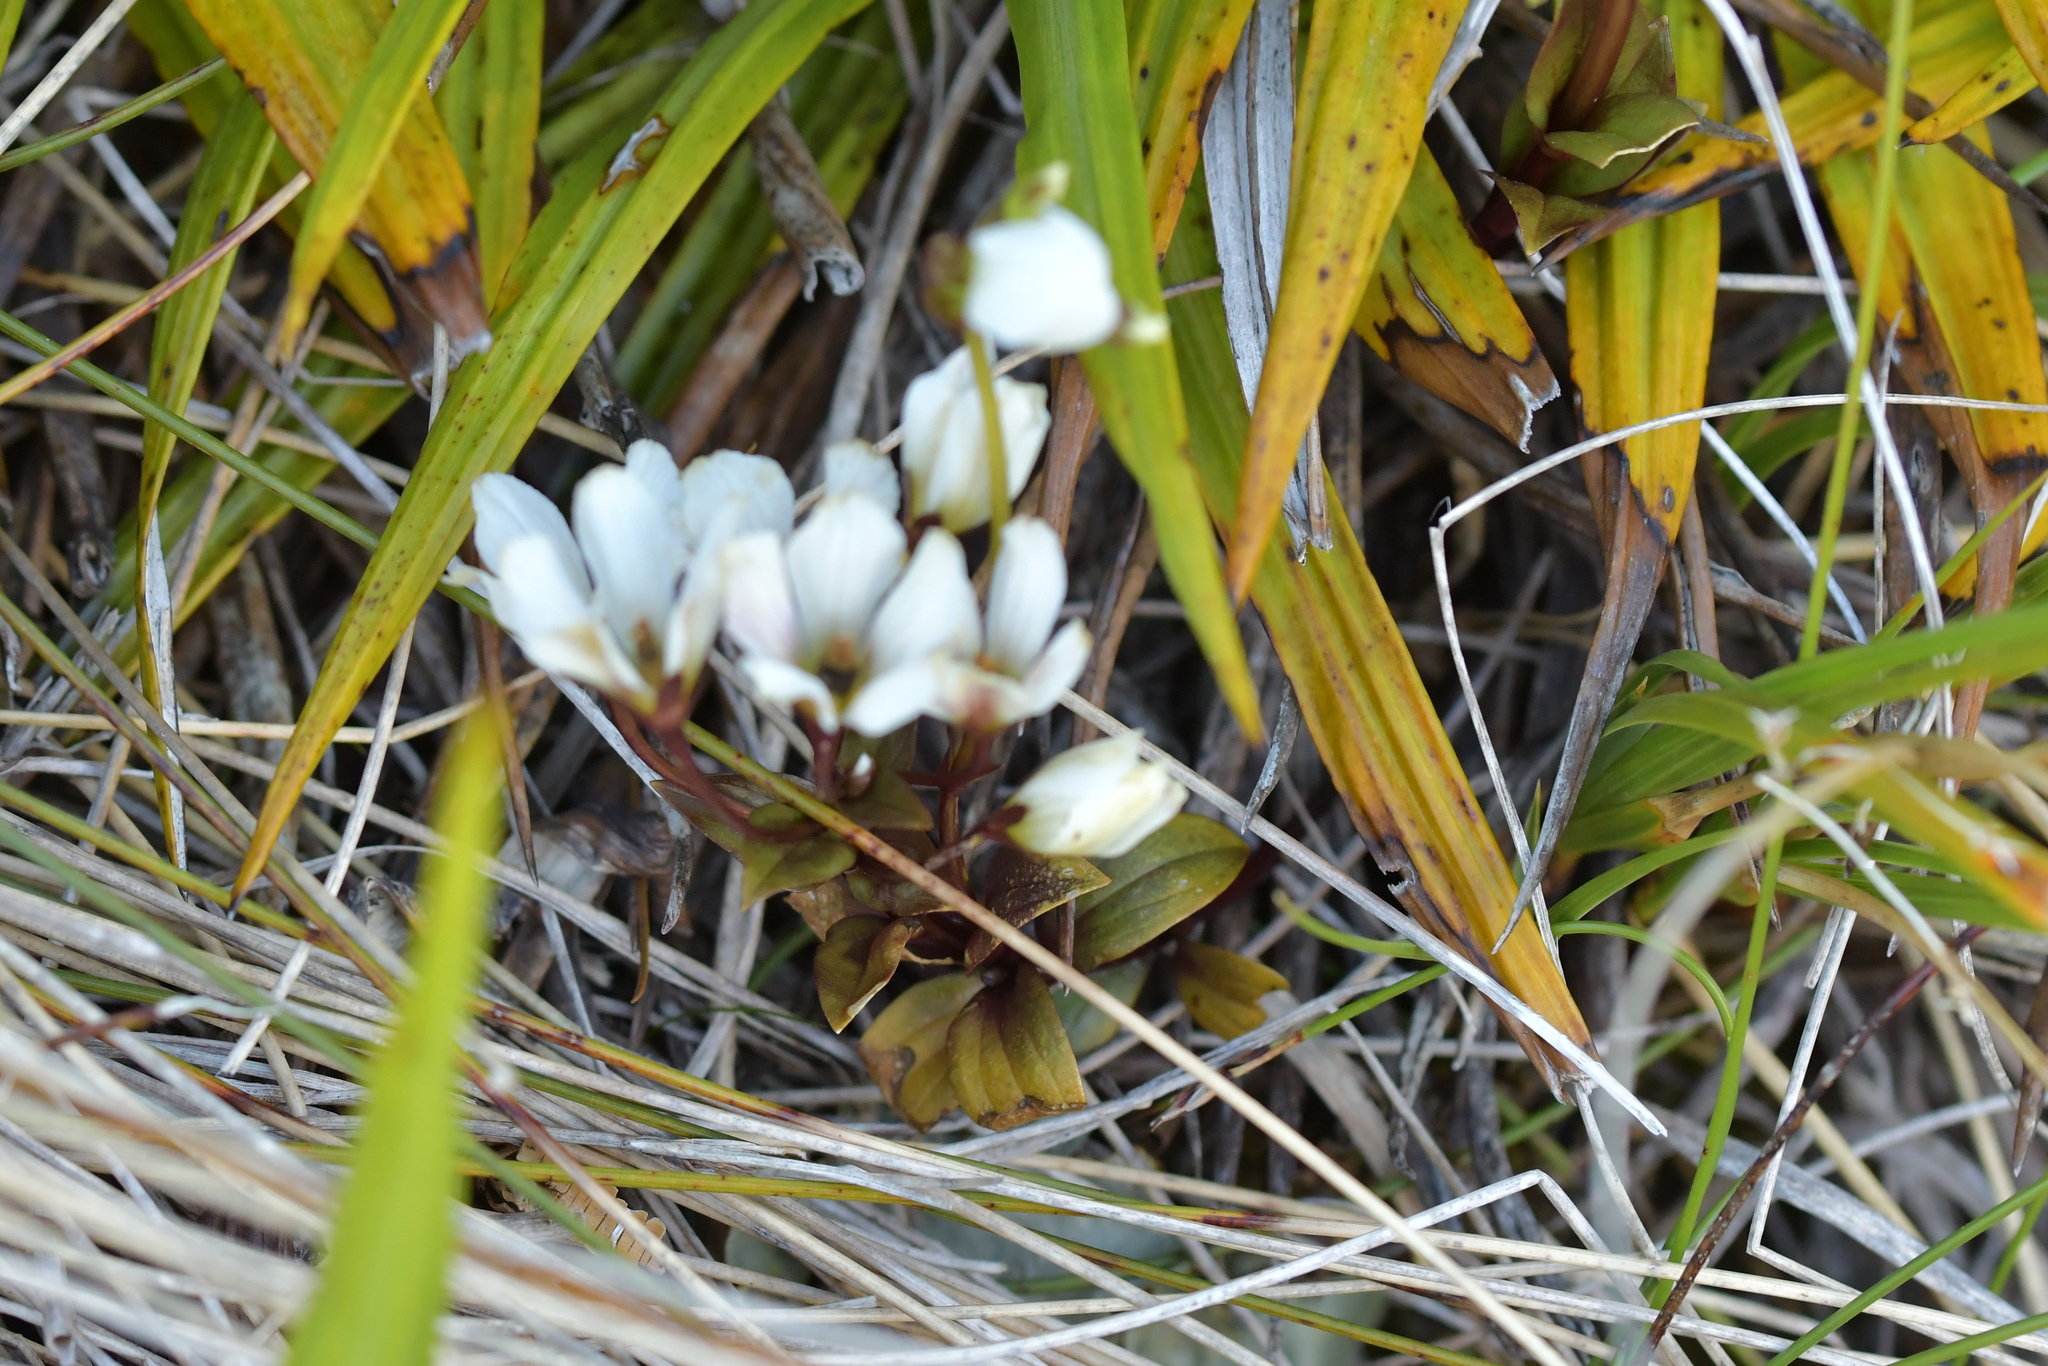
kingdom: Plantae
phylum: Tracheophyta
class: Magnoliopsida
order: Gentianales
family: Gentianaceae
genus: Gentianella
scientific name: Gentianella montana
